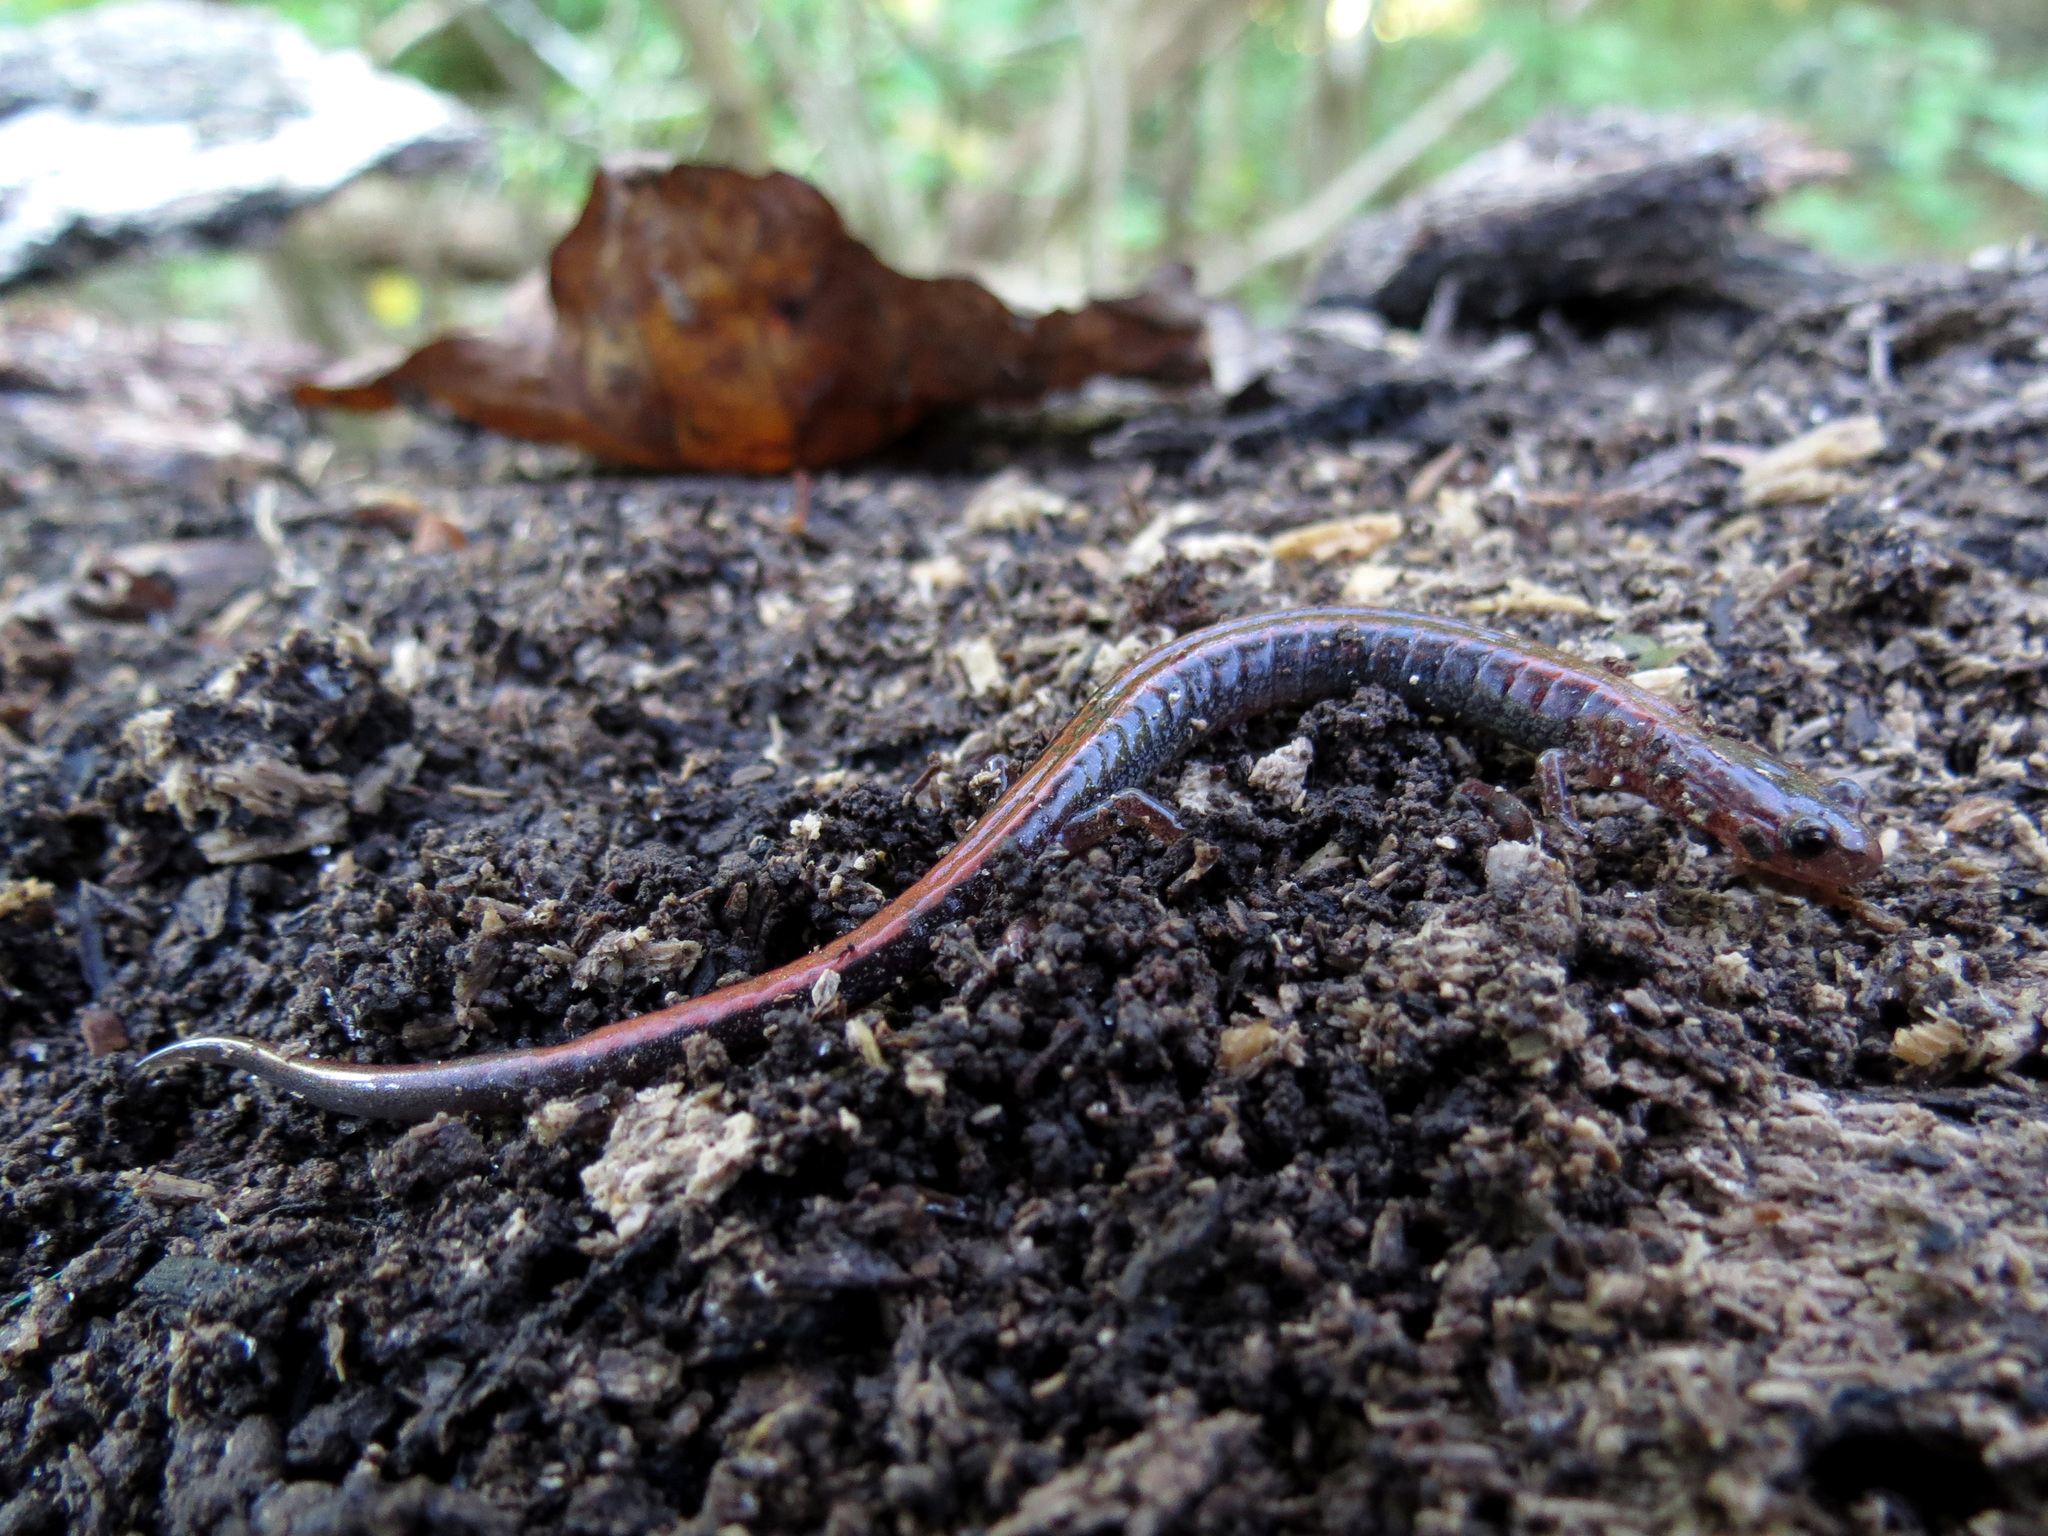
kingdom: Animalia
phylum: Chordata
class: Amphibia
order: Caudata
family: Plethodontidae
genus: Plethodon
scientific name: Plethodon cinereus
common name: Redback salamander
